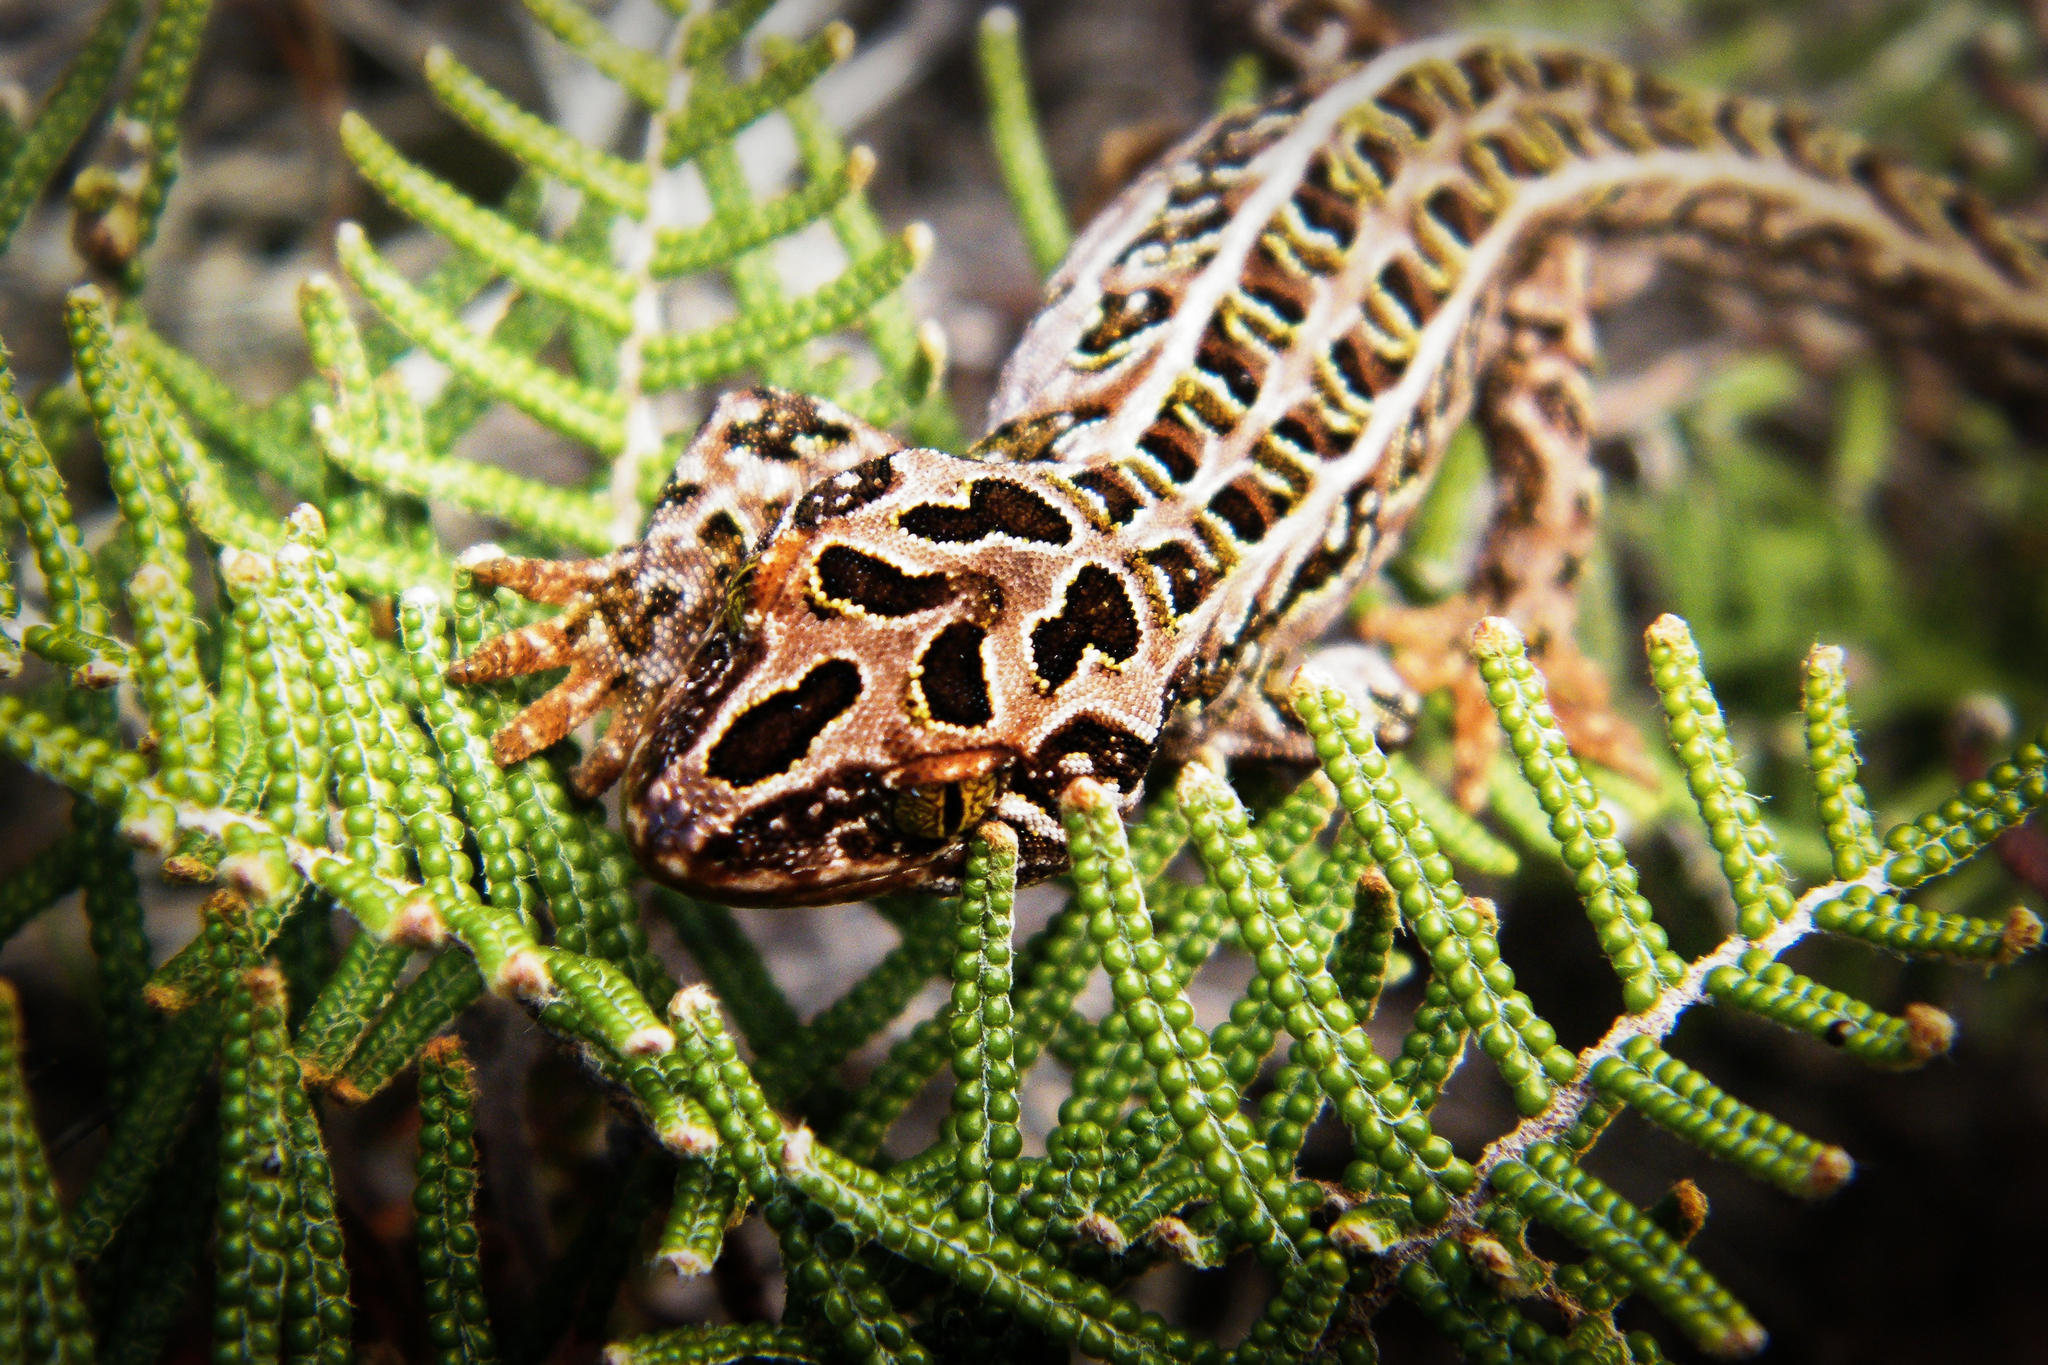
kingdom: Animalia
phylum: Chordata
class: Squamata
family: Diplodactylidae
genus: Tukutuku
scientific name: Tukutuku rakiurae
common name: Harlequin gecko
